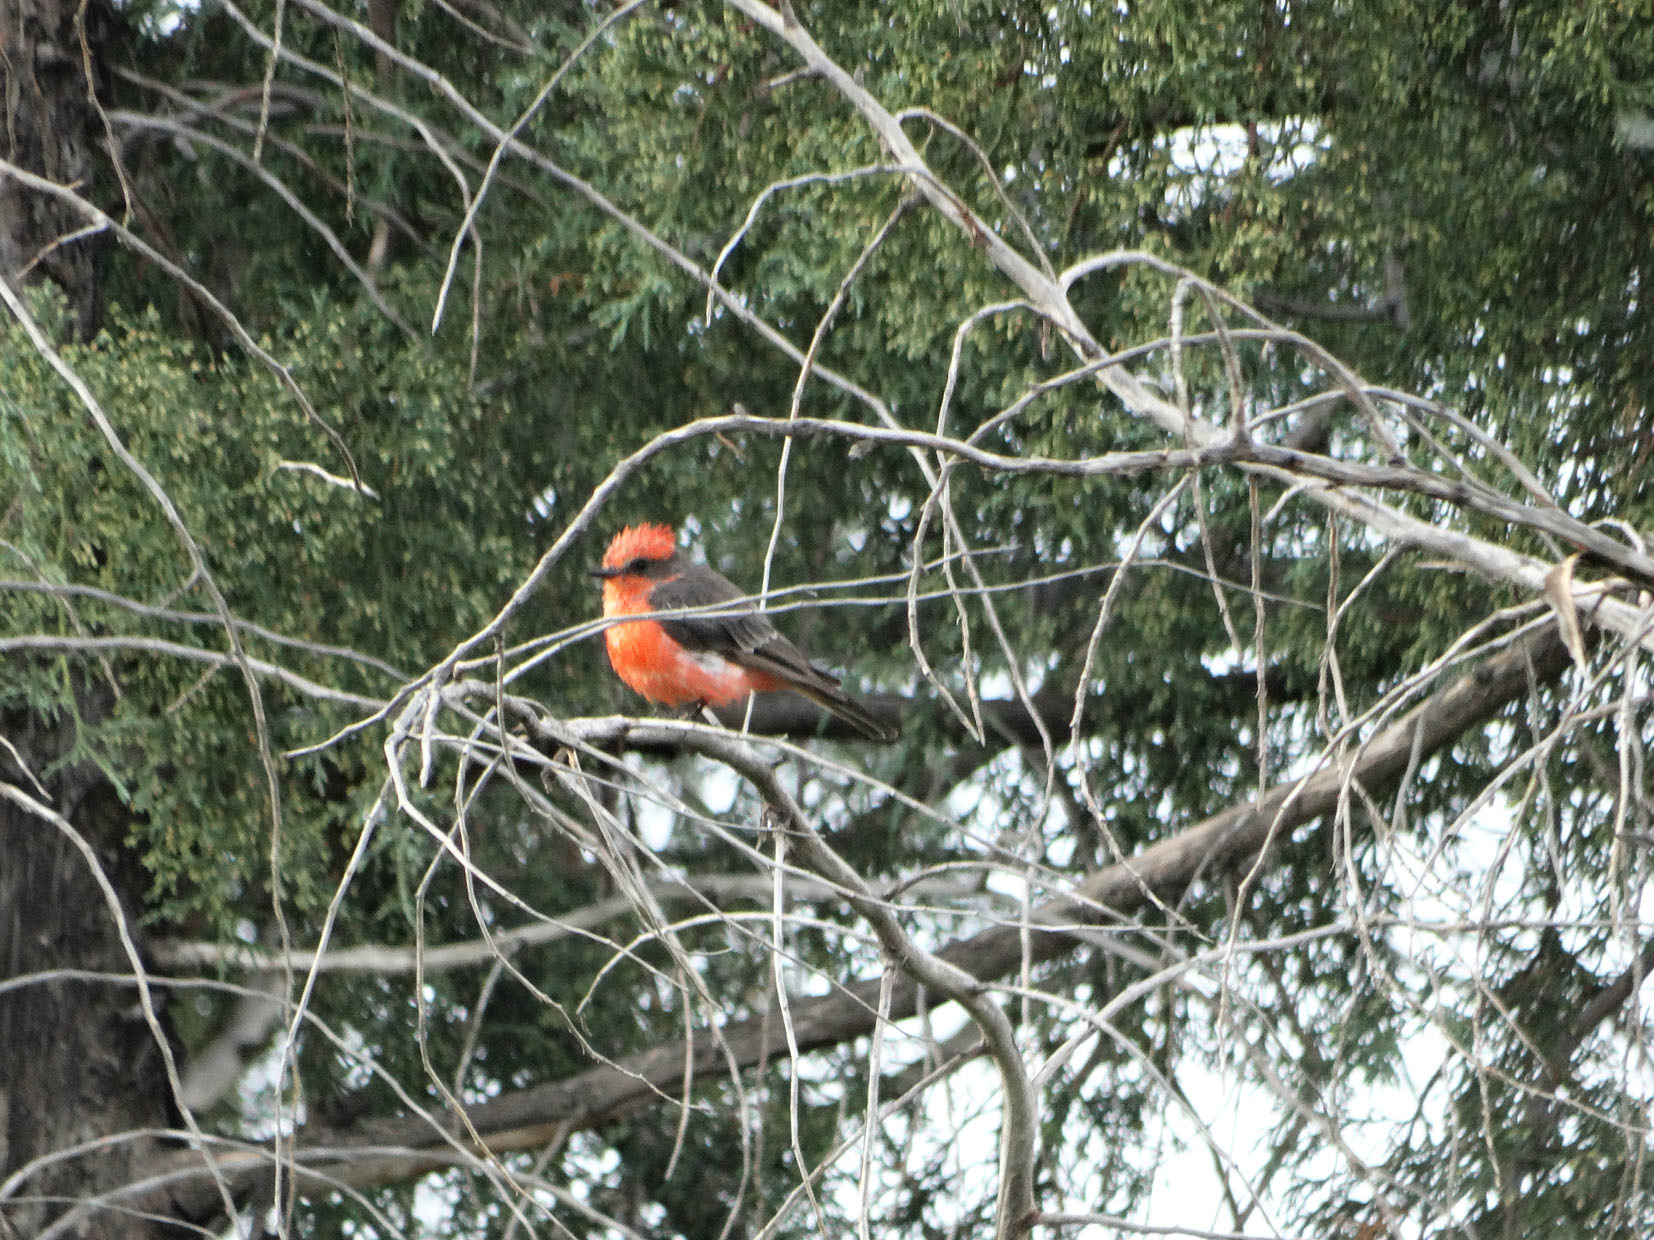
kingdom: Animalia
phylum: Chordata
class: Aves
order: Passeriformes
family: Tyrannidae
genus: Pyrocephalus
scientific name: Pyrocephalus rubinus
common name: Vermilion flycatcher
